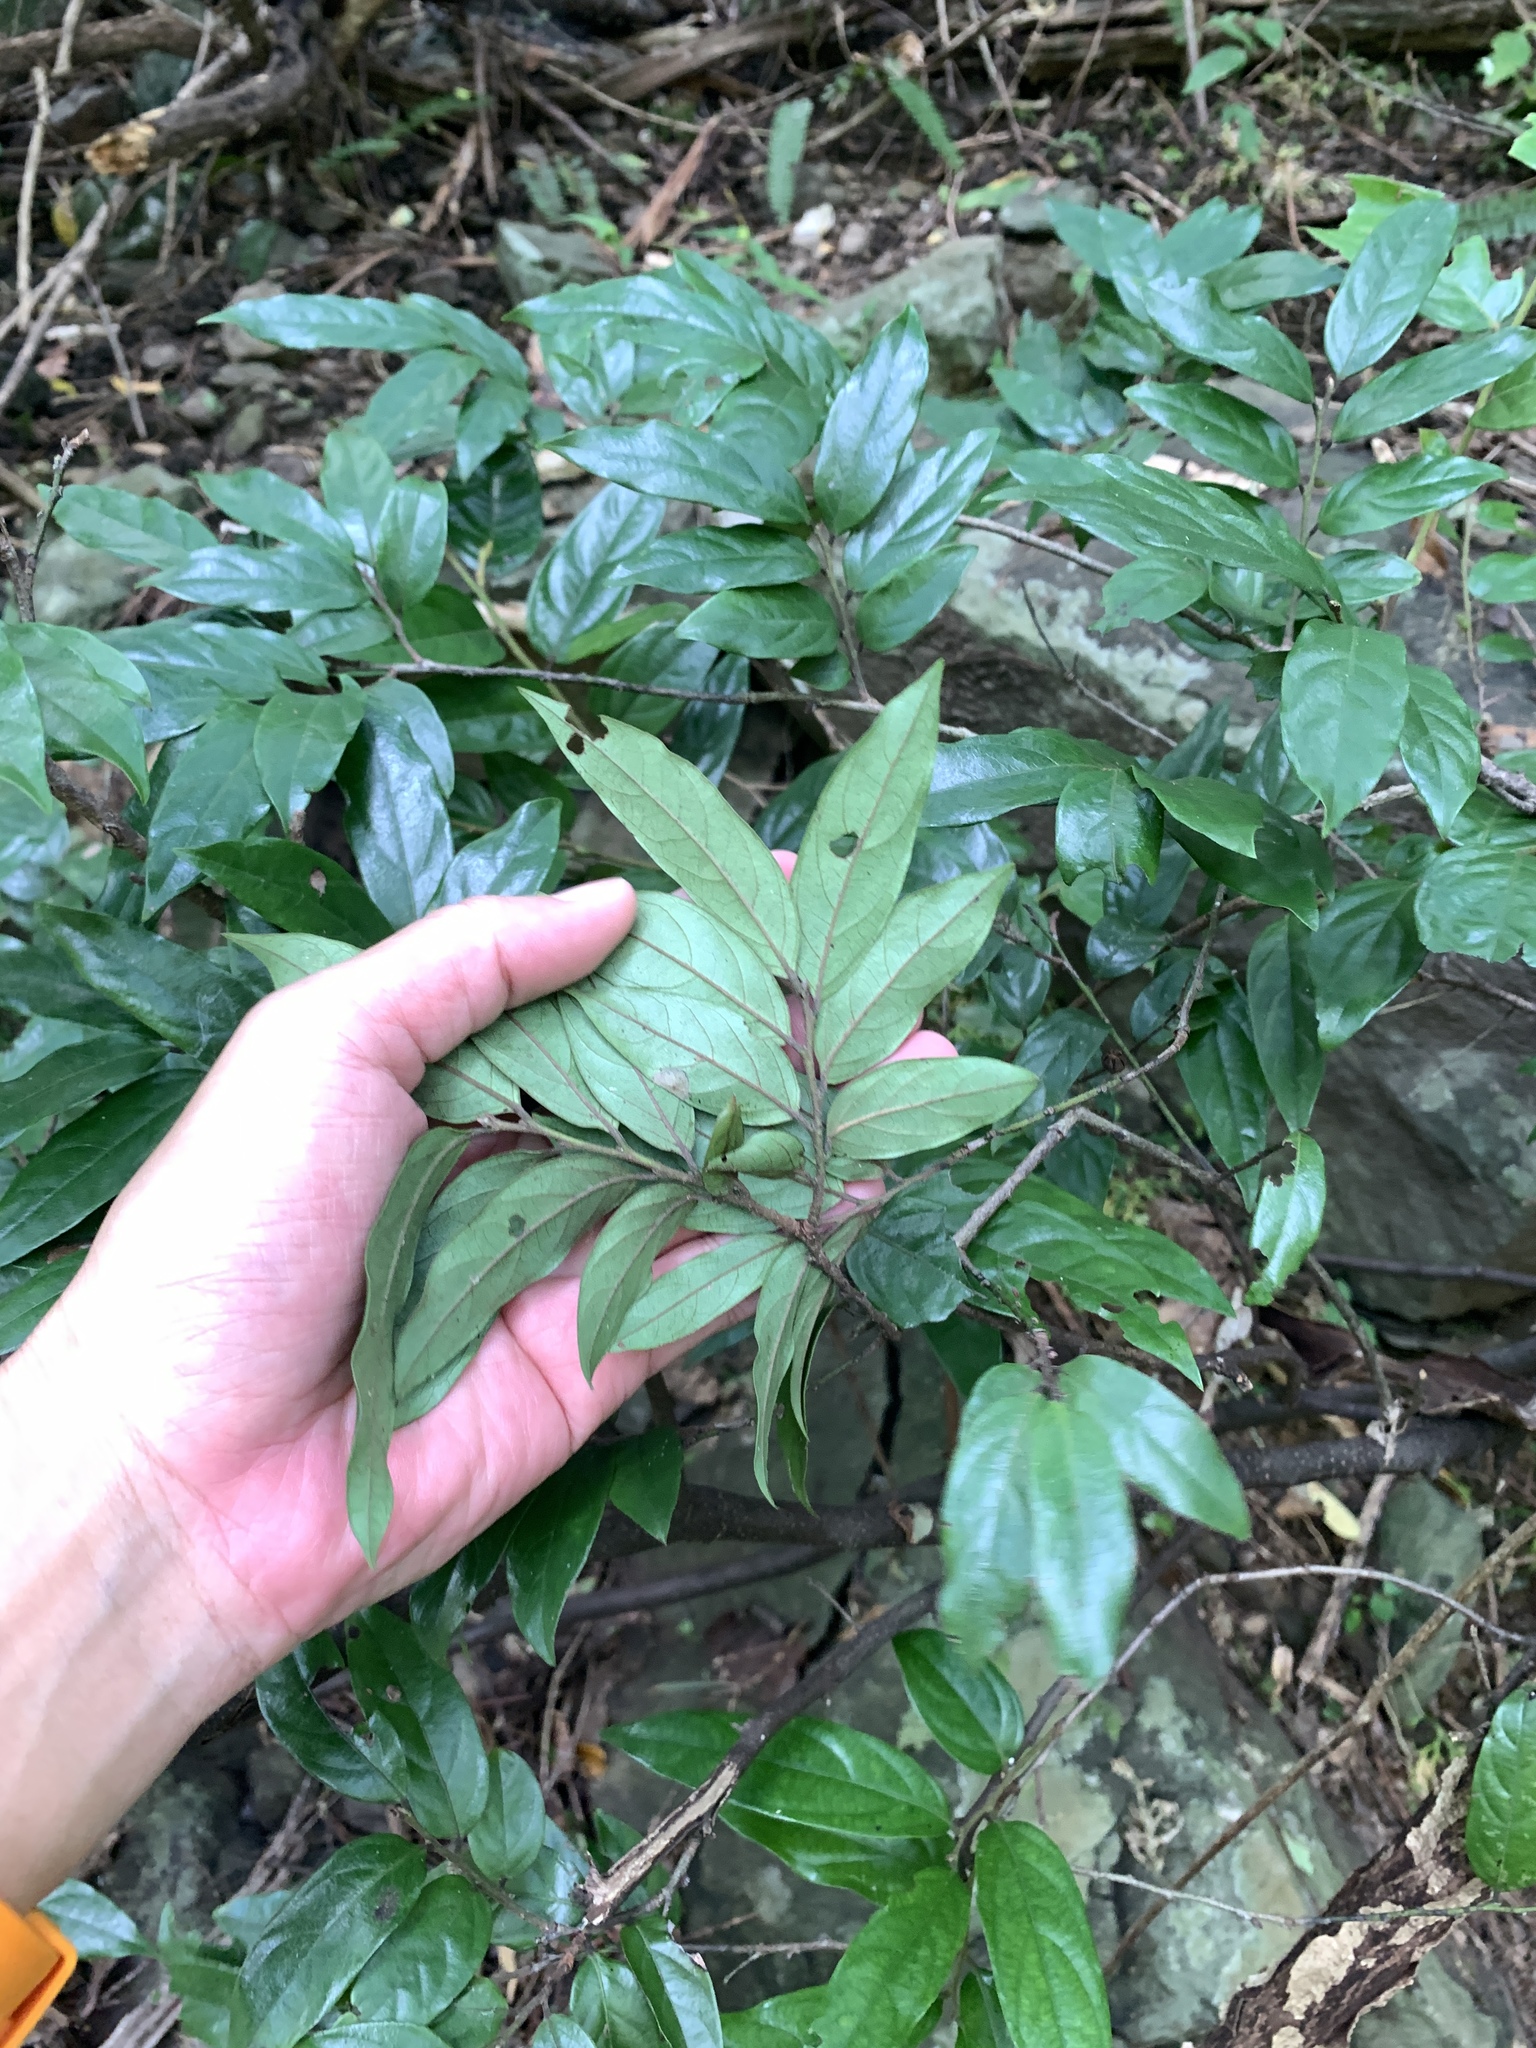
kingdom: Plantae
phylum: Tracheophyta
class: Magnoliopsida
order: Ericales
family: Ebenaceae
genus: Diospyros
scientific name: Diospyros eriantha
